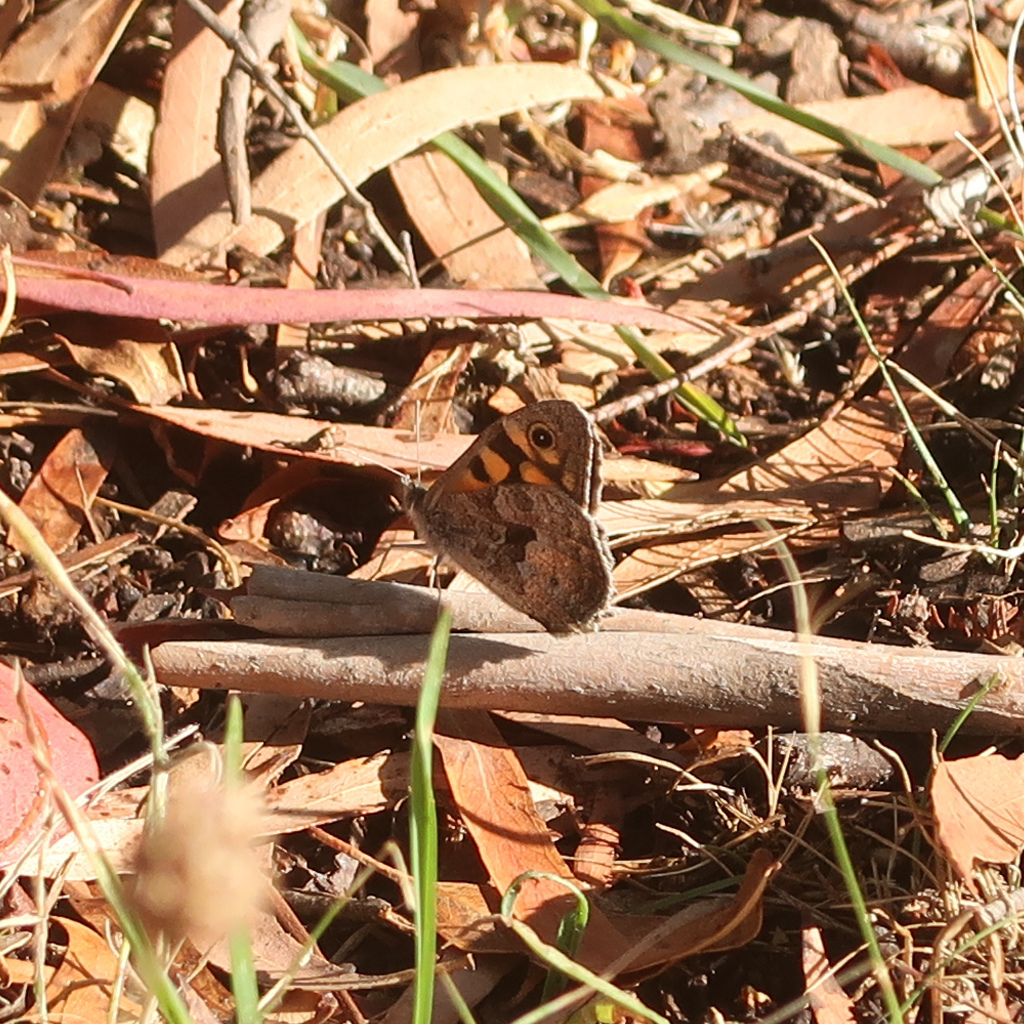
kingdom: Animalia
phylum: Arthropoda
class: Insecta
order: Lepidoptera
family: Nymphalidae
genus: Geitoneura
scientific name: Geitoneura klugii
